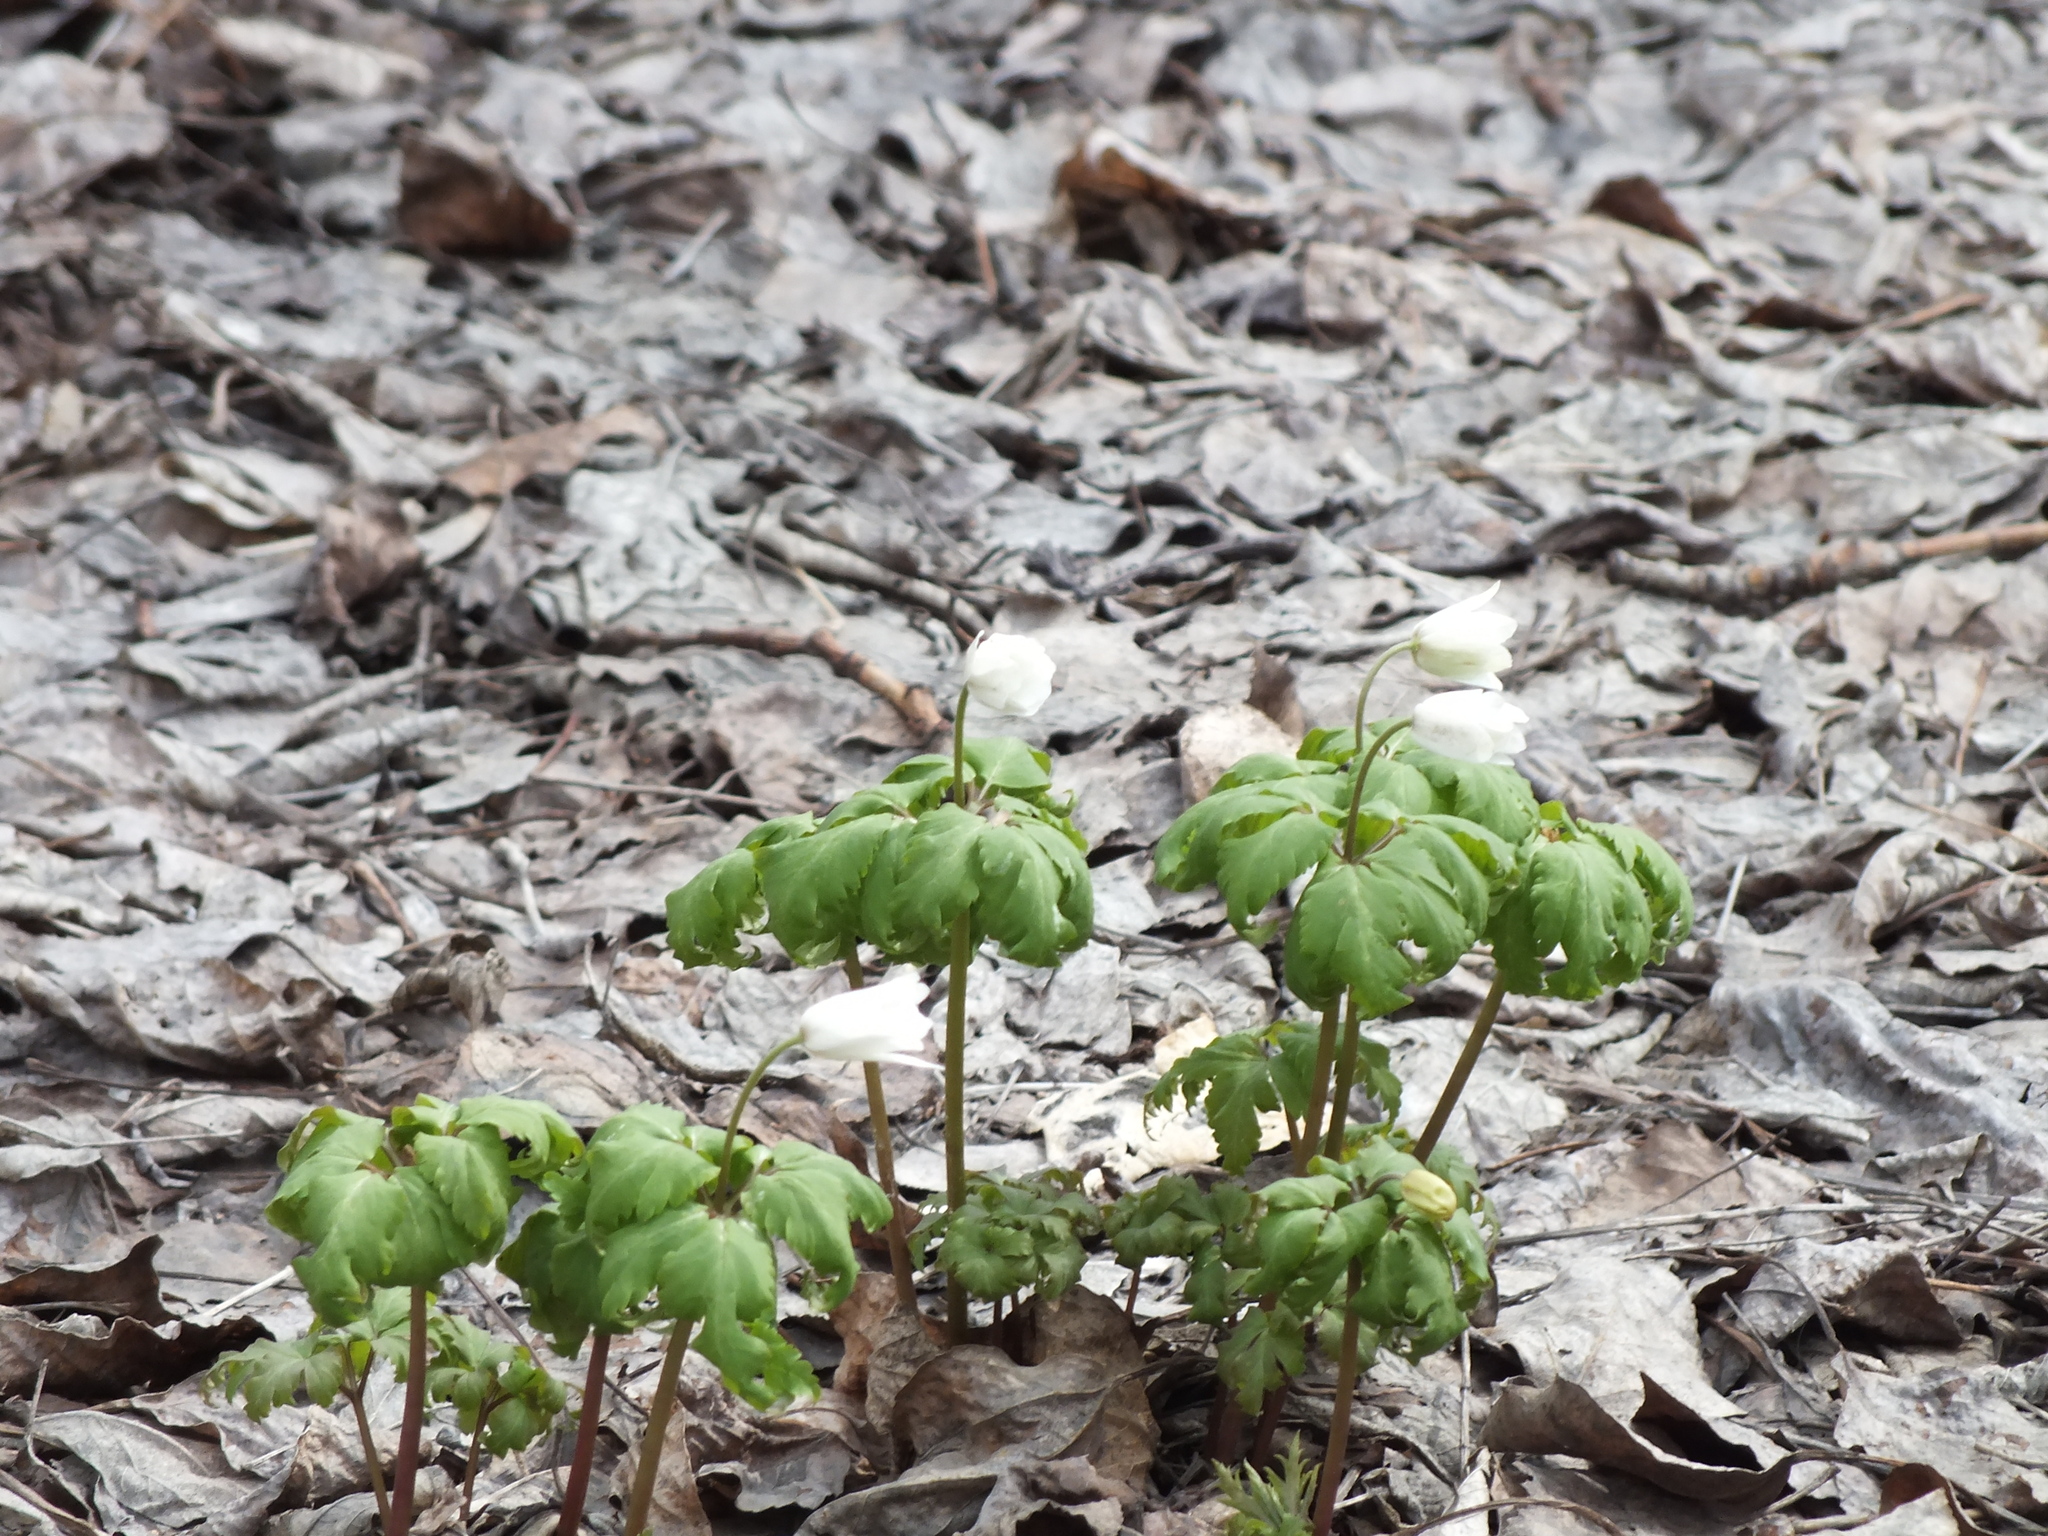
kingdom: Plantae
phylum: Tracheophyta
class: Magnoliopsida
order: Ranunculales
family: Ranunculaceae
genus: Anemone
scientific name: Anemone altaica
